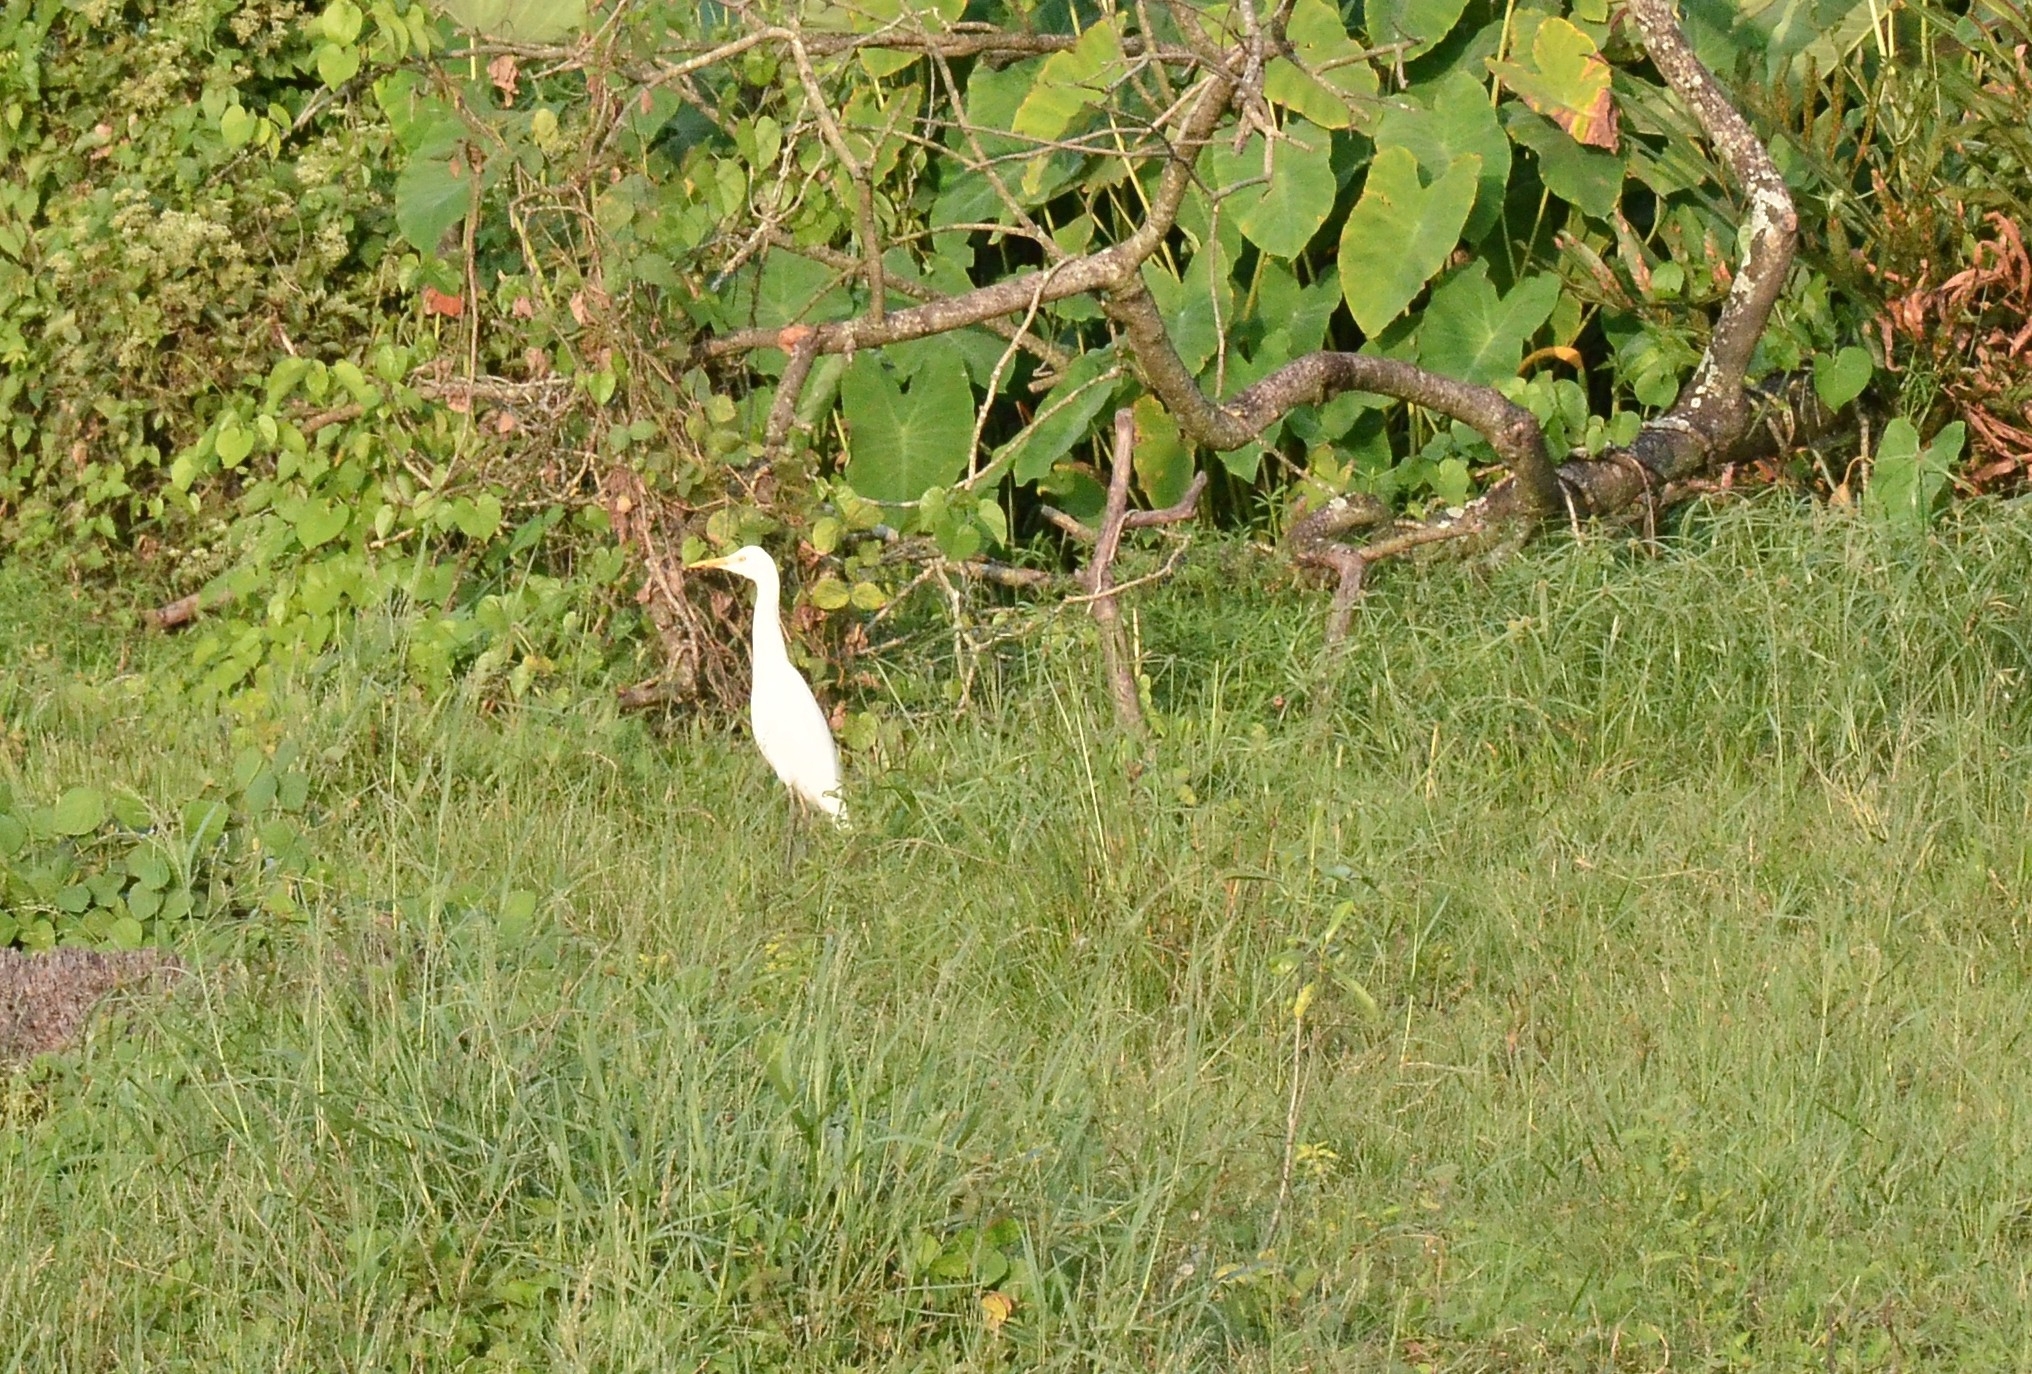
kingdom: Animalia
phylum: Chordata
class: Aves
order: Pelecaniformes
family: Ardeidae
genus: Bubulcus
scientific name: Bubulcus coromandus
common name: Eastern cattle egret
